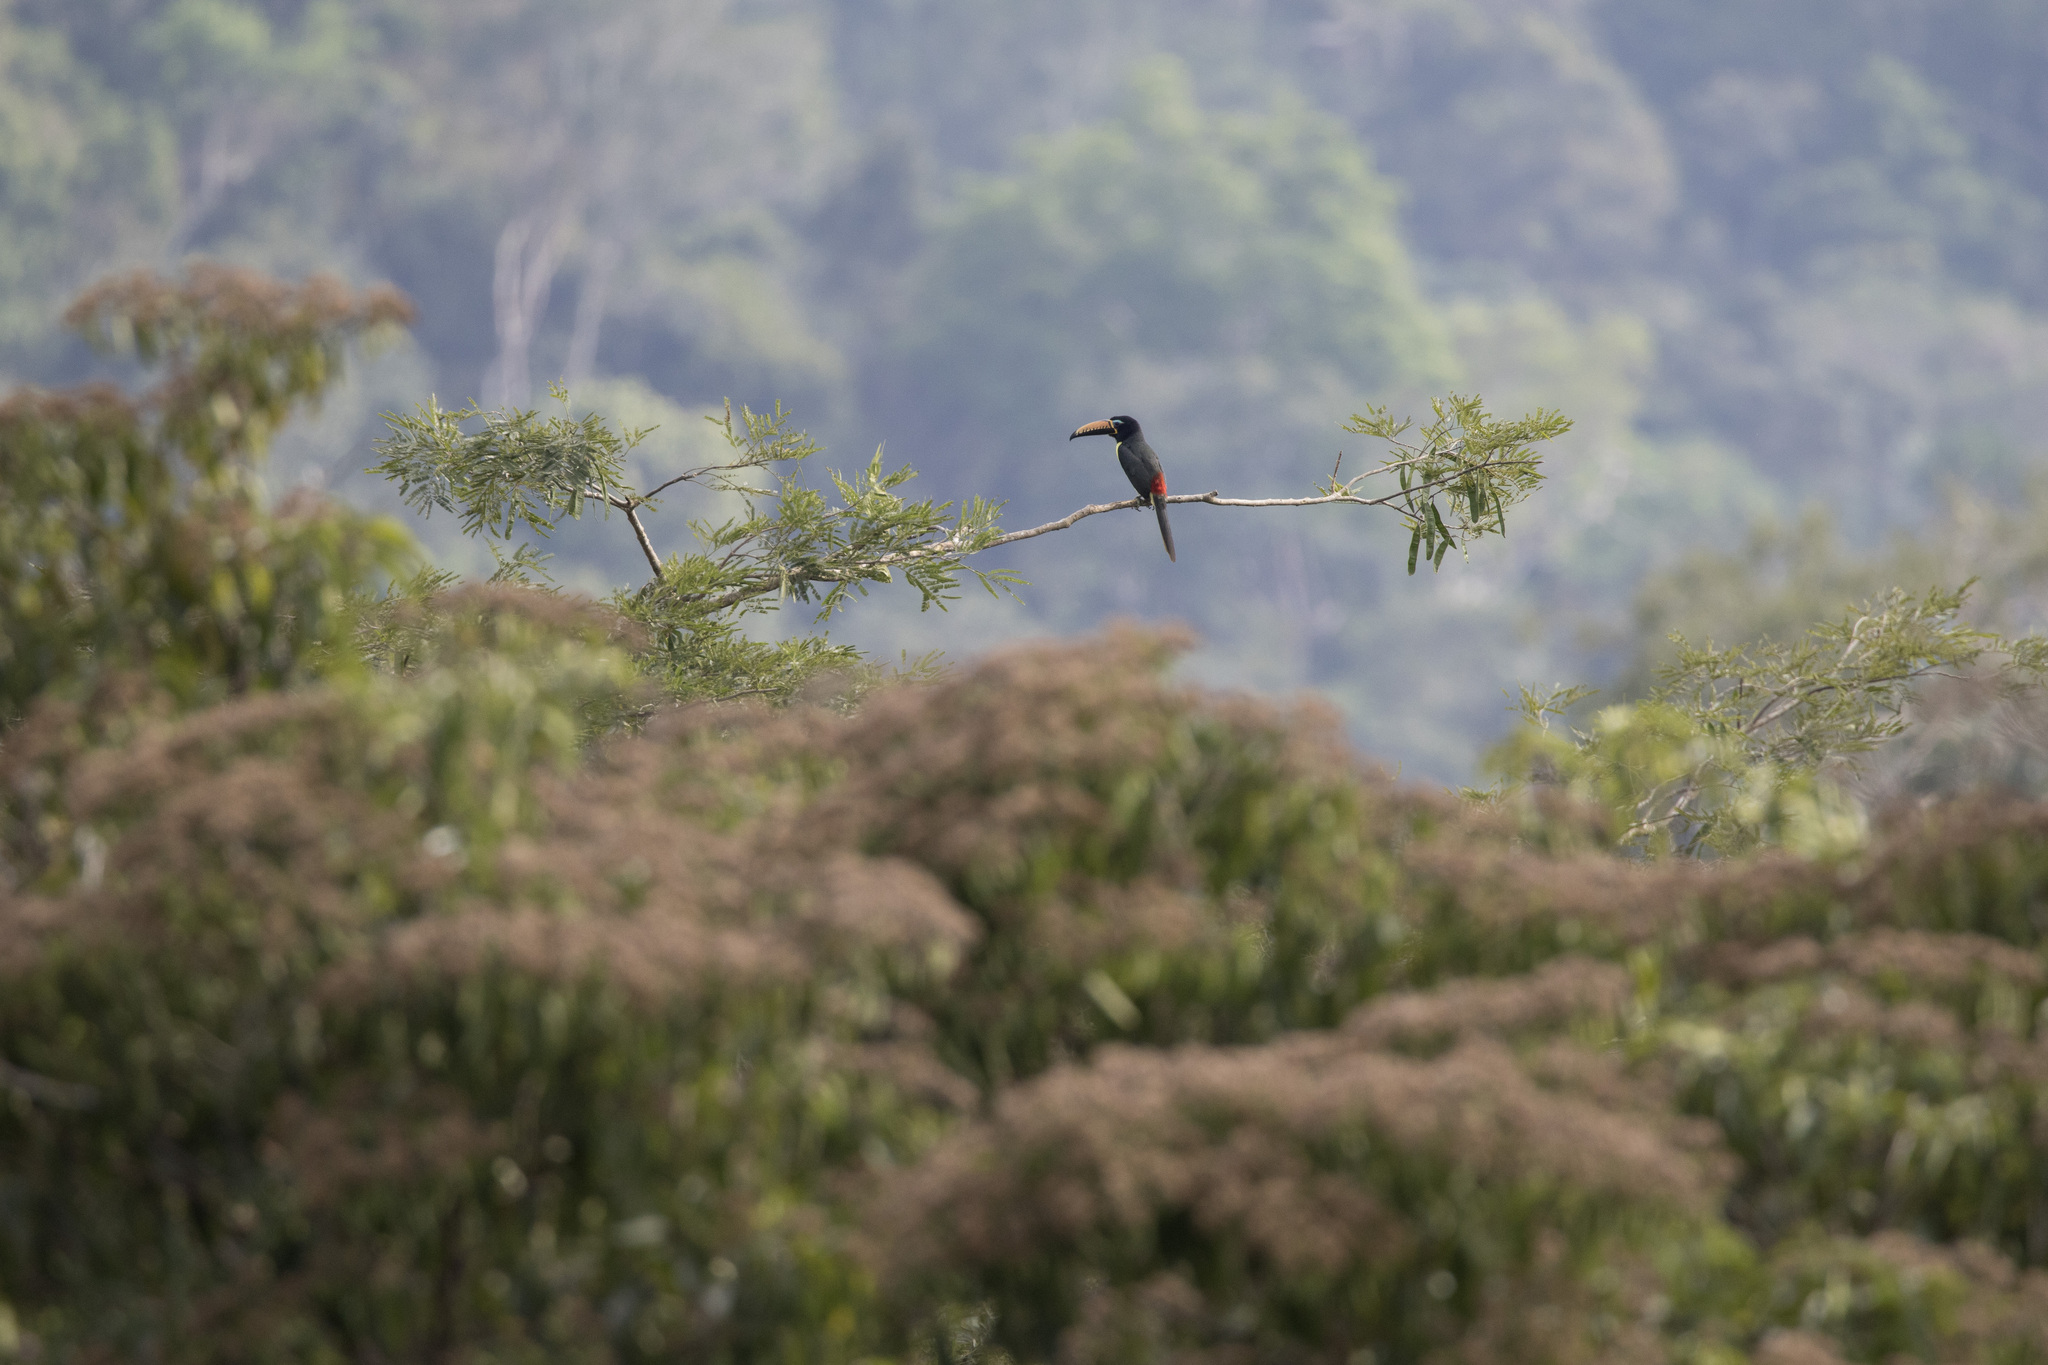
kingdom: Animalia
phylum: Chordata
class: Aves
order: Piciformes
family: Ramphastidae
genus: Pteroglossus
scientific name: Pteroglossus inscriptus
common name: Lettered aracari
